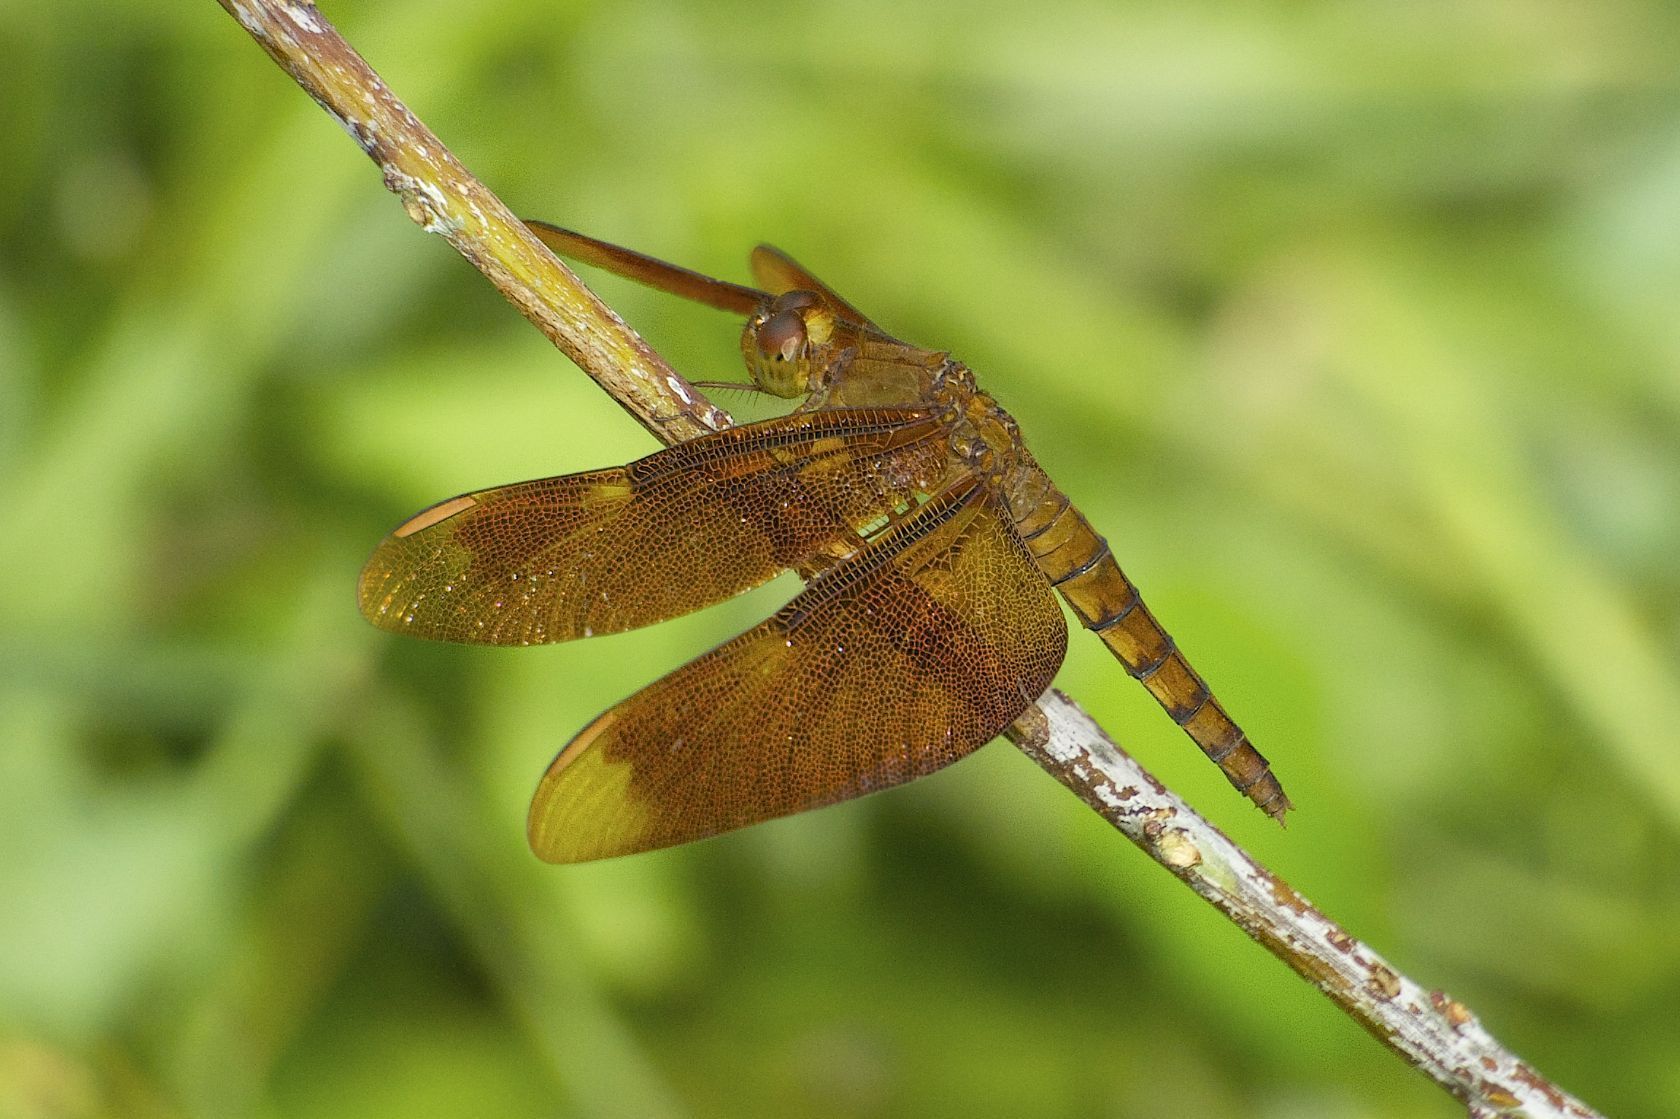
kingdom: Animalia
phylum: Arthropoda
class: Insecta
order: Odonata
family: Libellulidae
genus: Neurothemis
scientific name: Neurothemis fulvia
